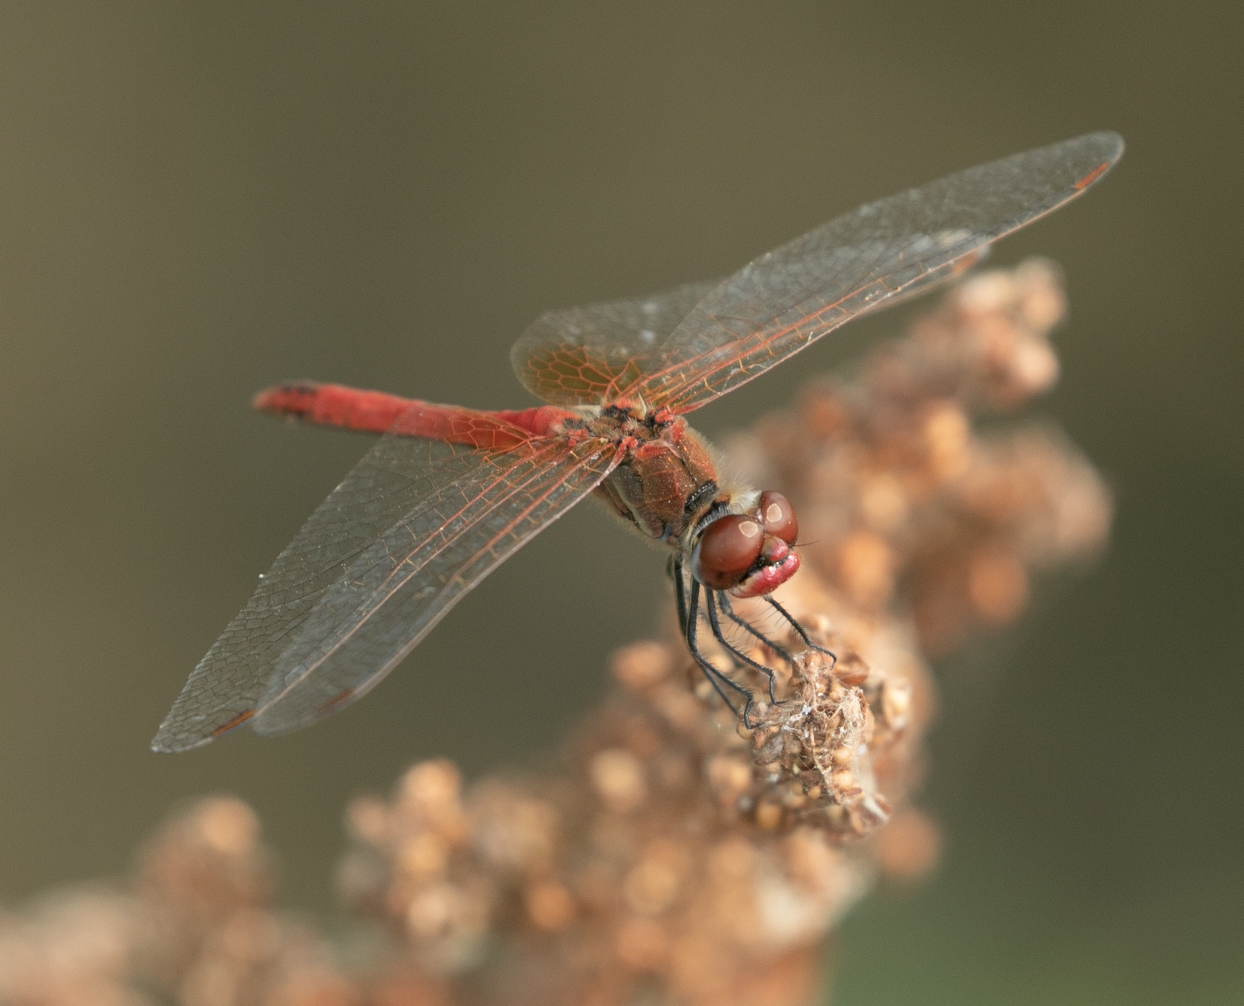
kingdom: Animalia
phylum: Arthropoda
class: Insecta
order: Odonata
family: Libellulidae
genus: Sympetrum
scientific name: Sympetrum fonscolombii
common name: Red-veined darter
